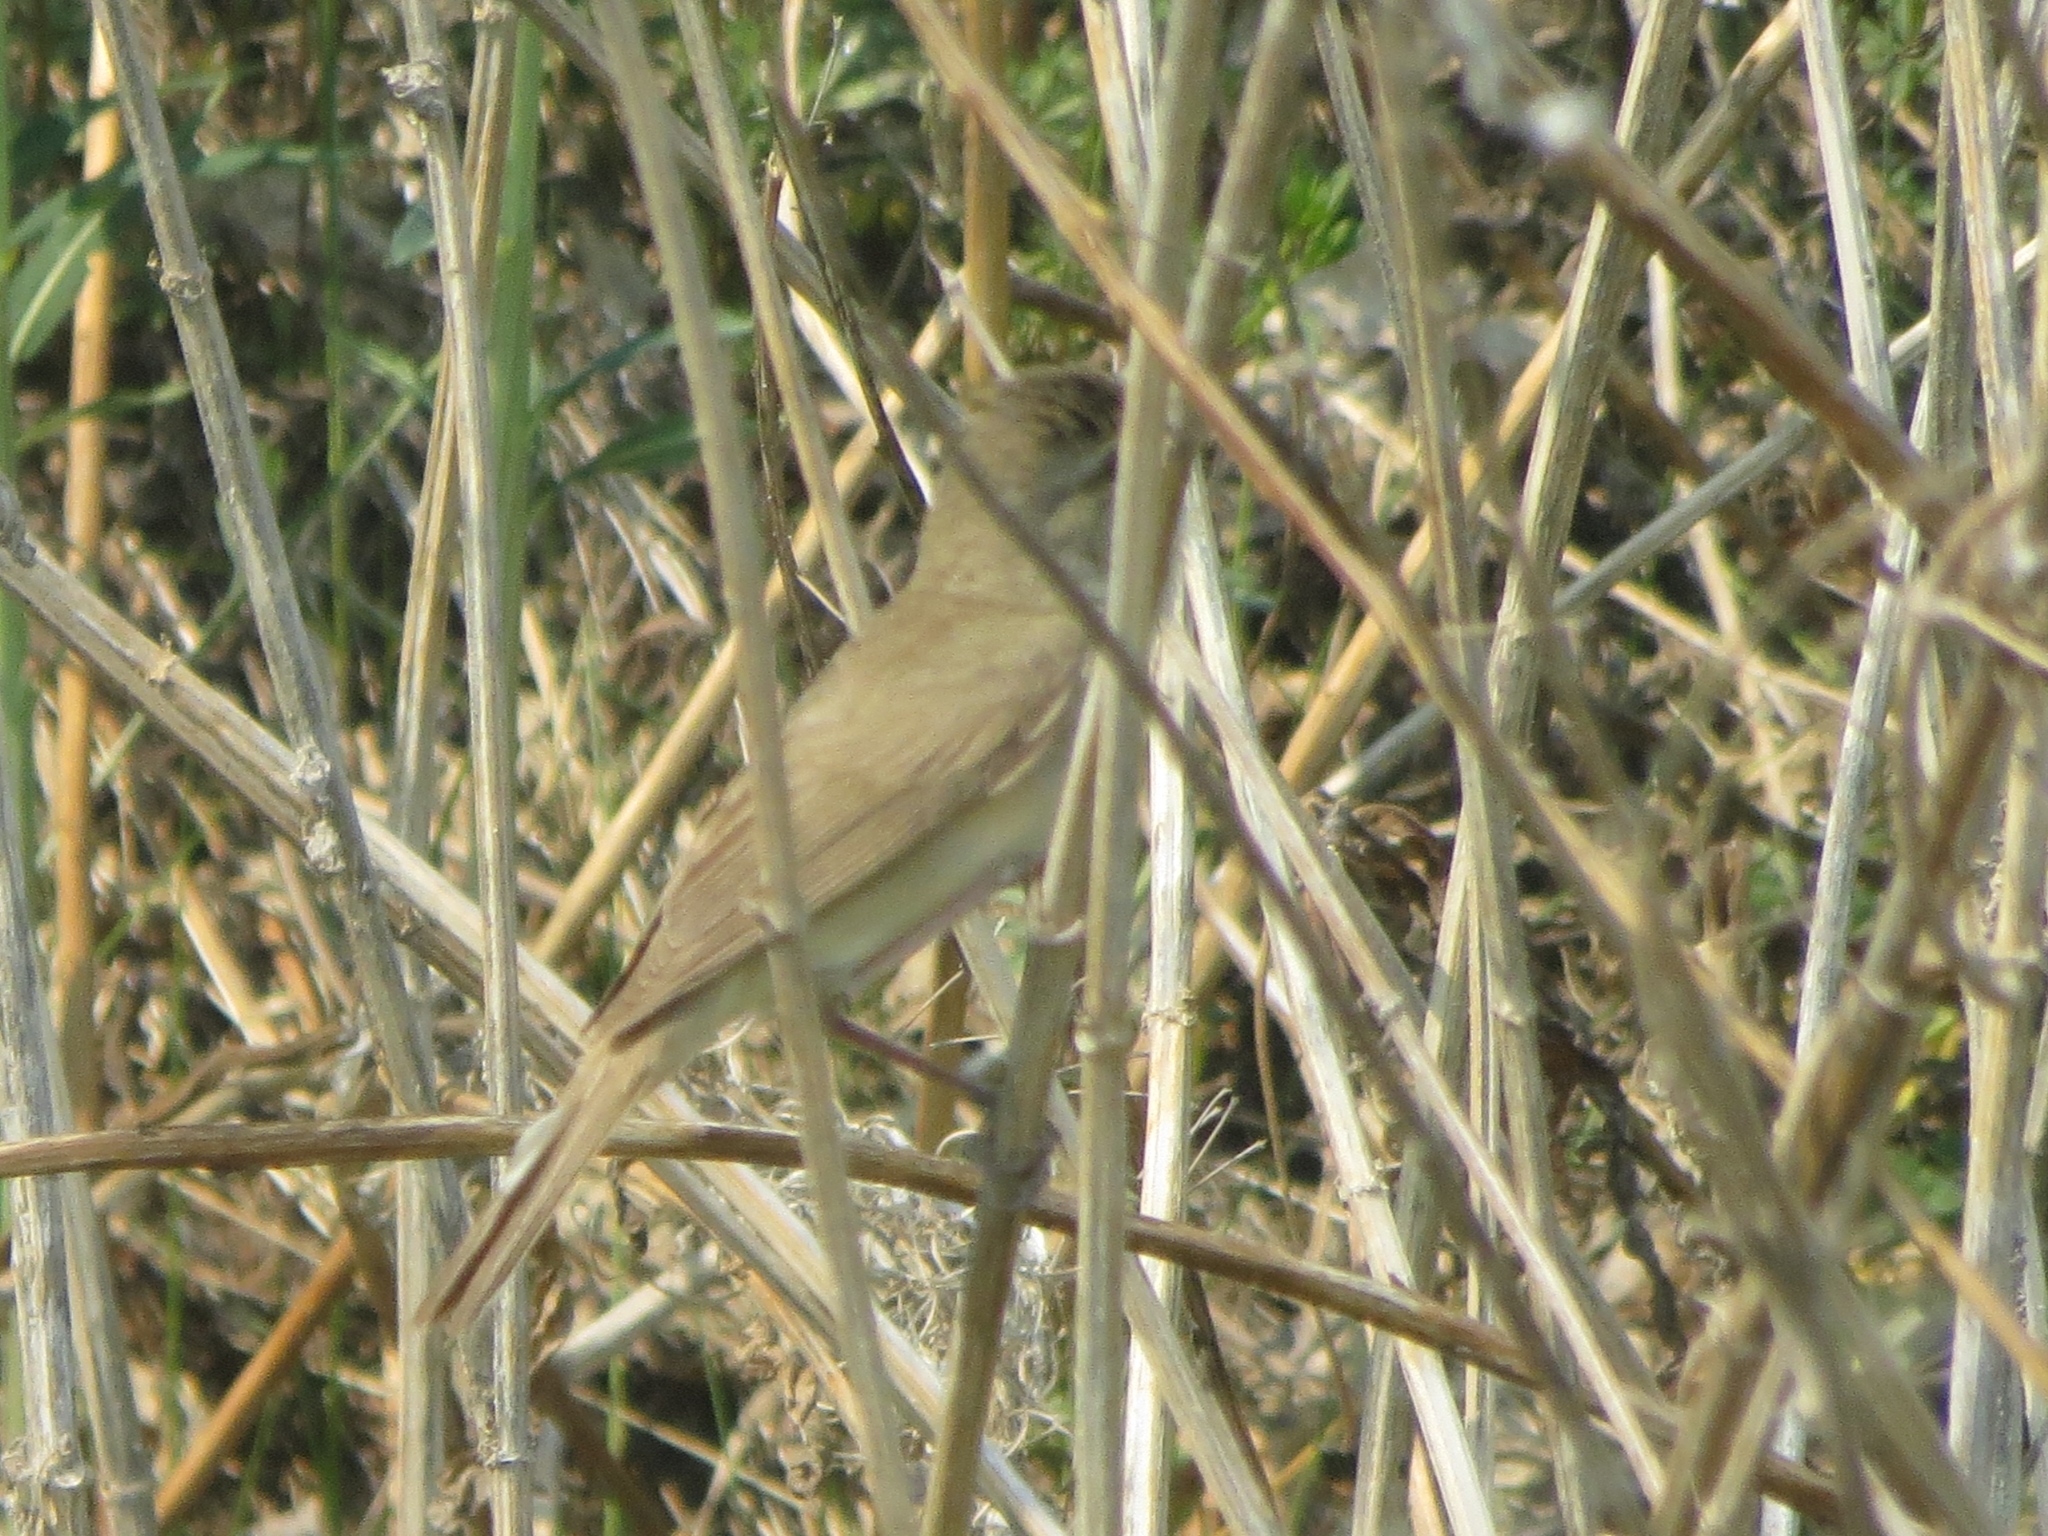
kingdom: Animalia
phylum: Chordata
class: Aves
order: Passeriformes
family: Acrocephalidae
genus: Acrocephalus
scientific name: Acrocephalus dumetorum
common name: Blyth's reed warbler
